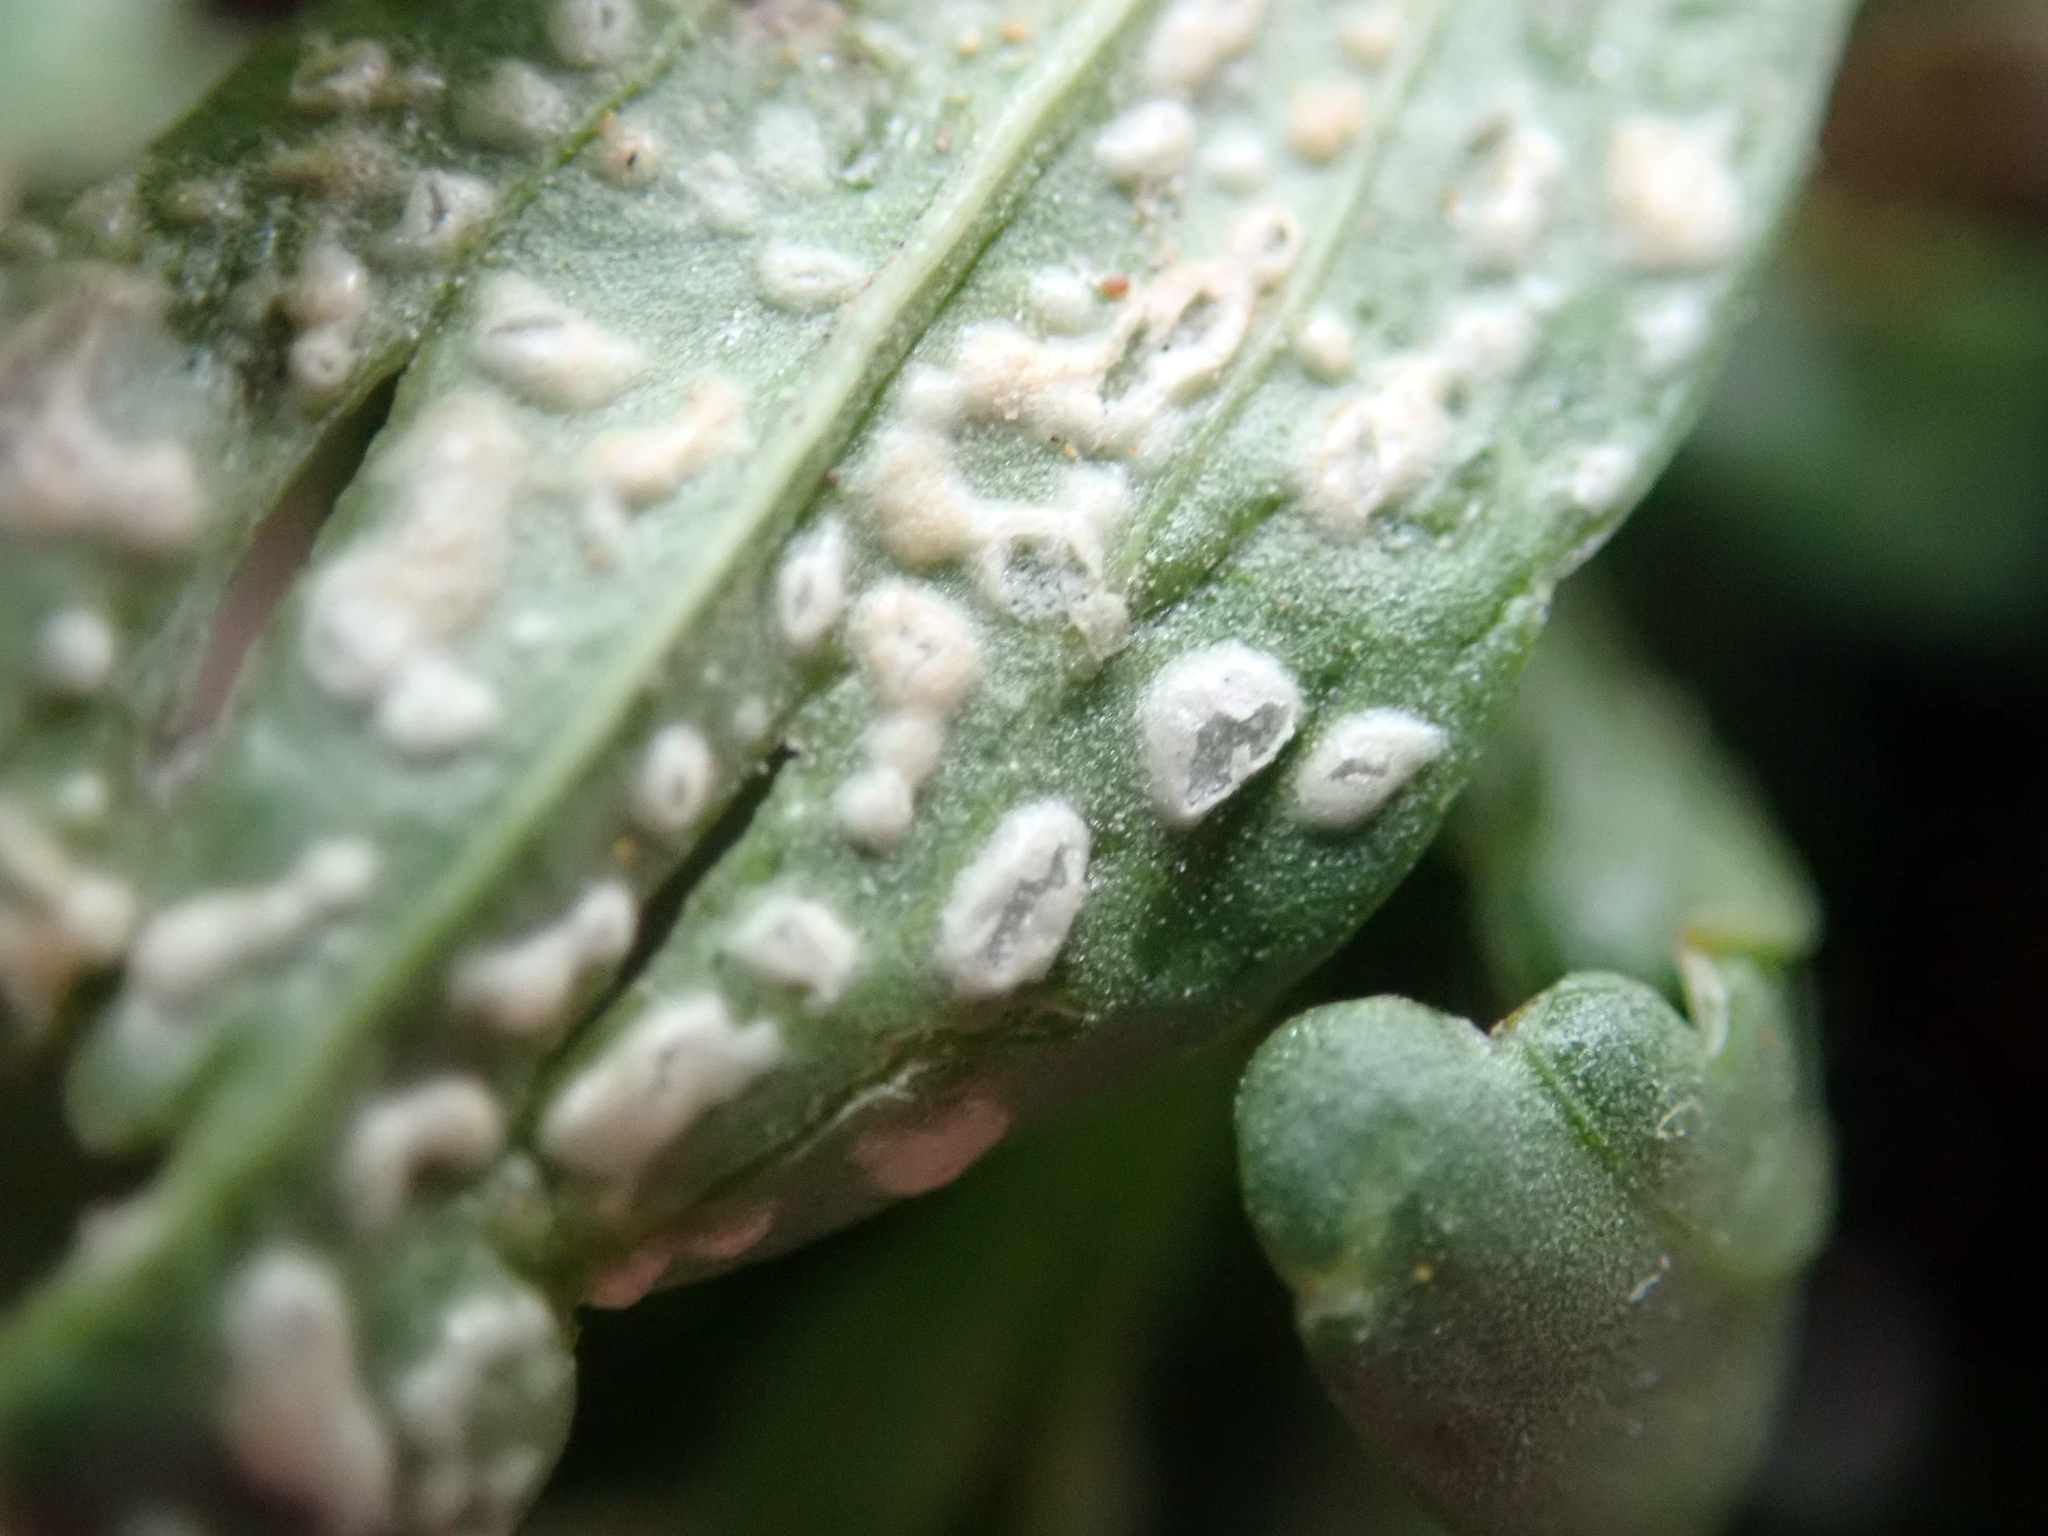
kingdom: Chromista
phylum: Oomycota
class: Peronosporea
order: Albuginales
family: Albuginaceae
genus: Pustula
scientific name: Pustula centaurii
